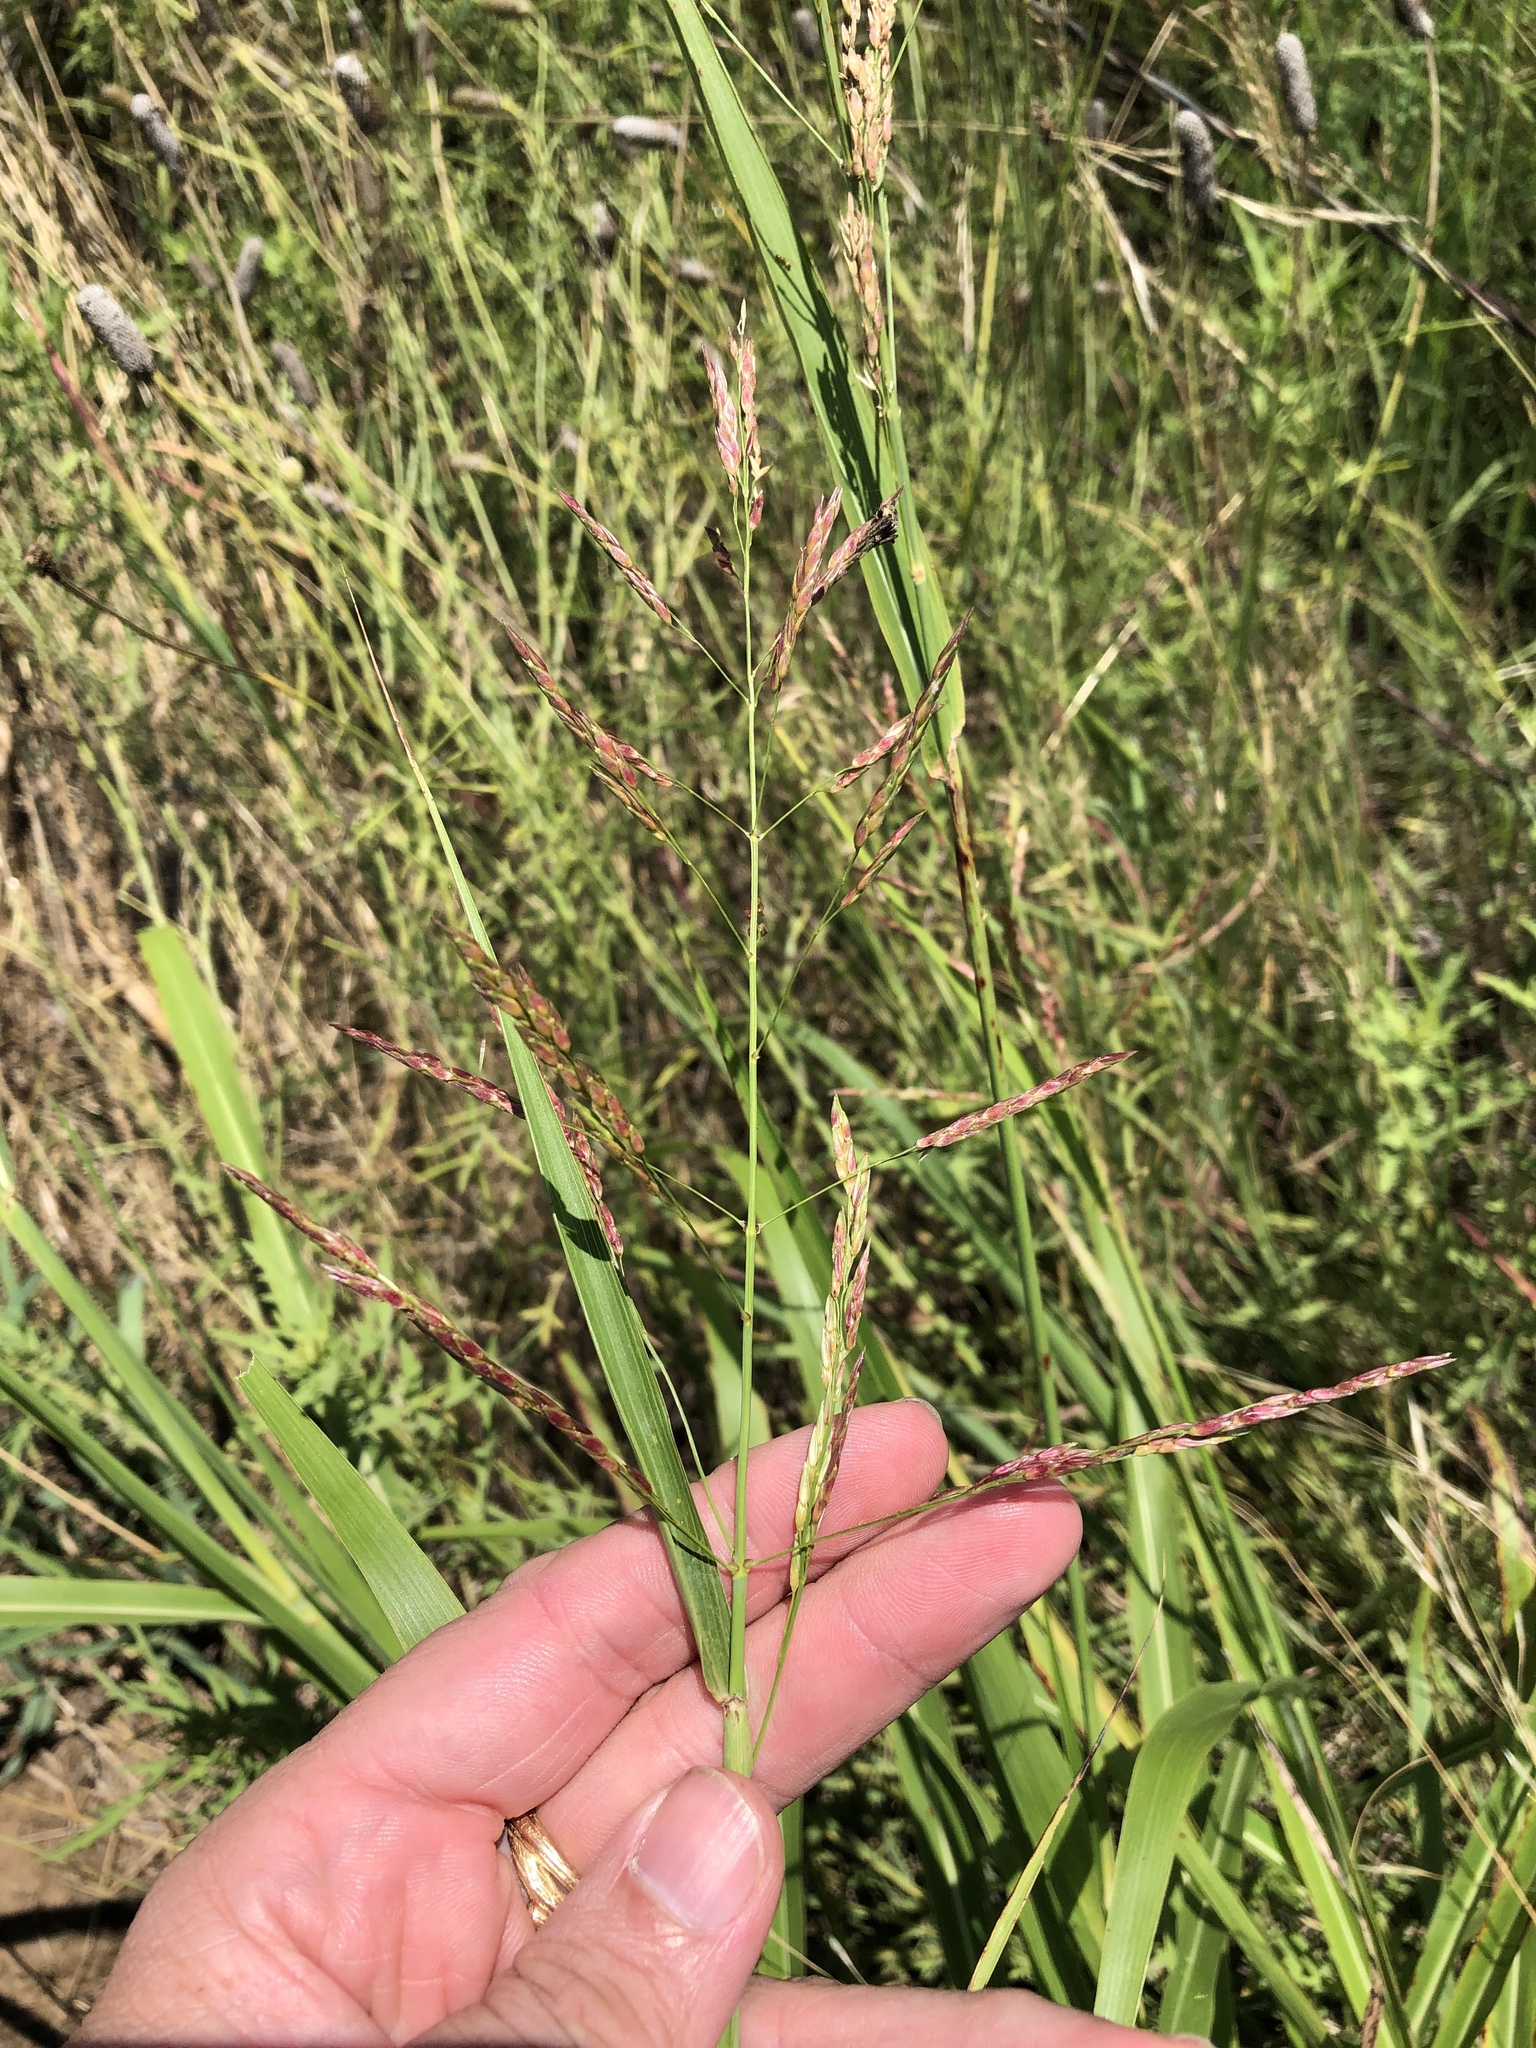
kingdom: Plantae
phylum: Tracheophyta
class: Liliopsida
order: Poales
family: Poaceae
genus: Sorghum
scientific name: Sorghum halepense
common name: Johnson-grass
